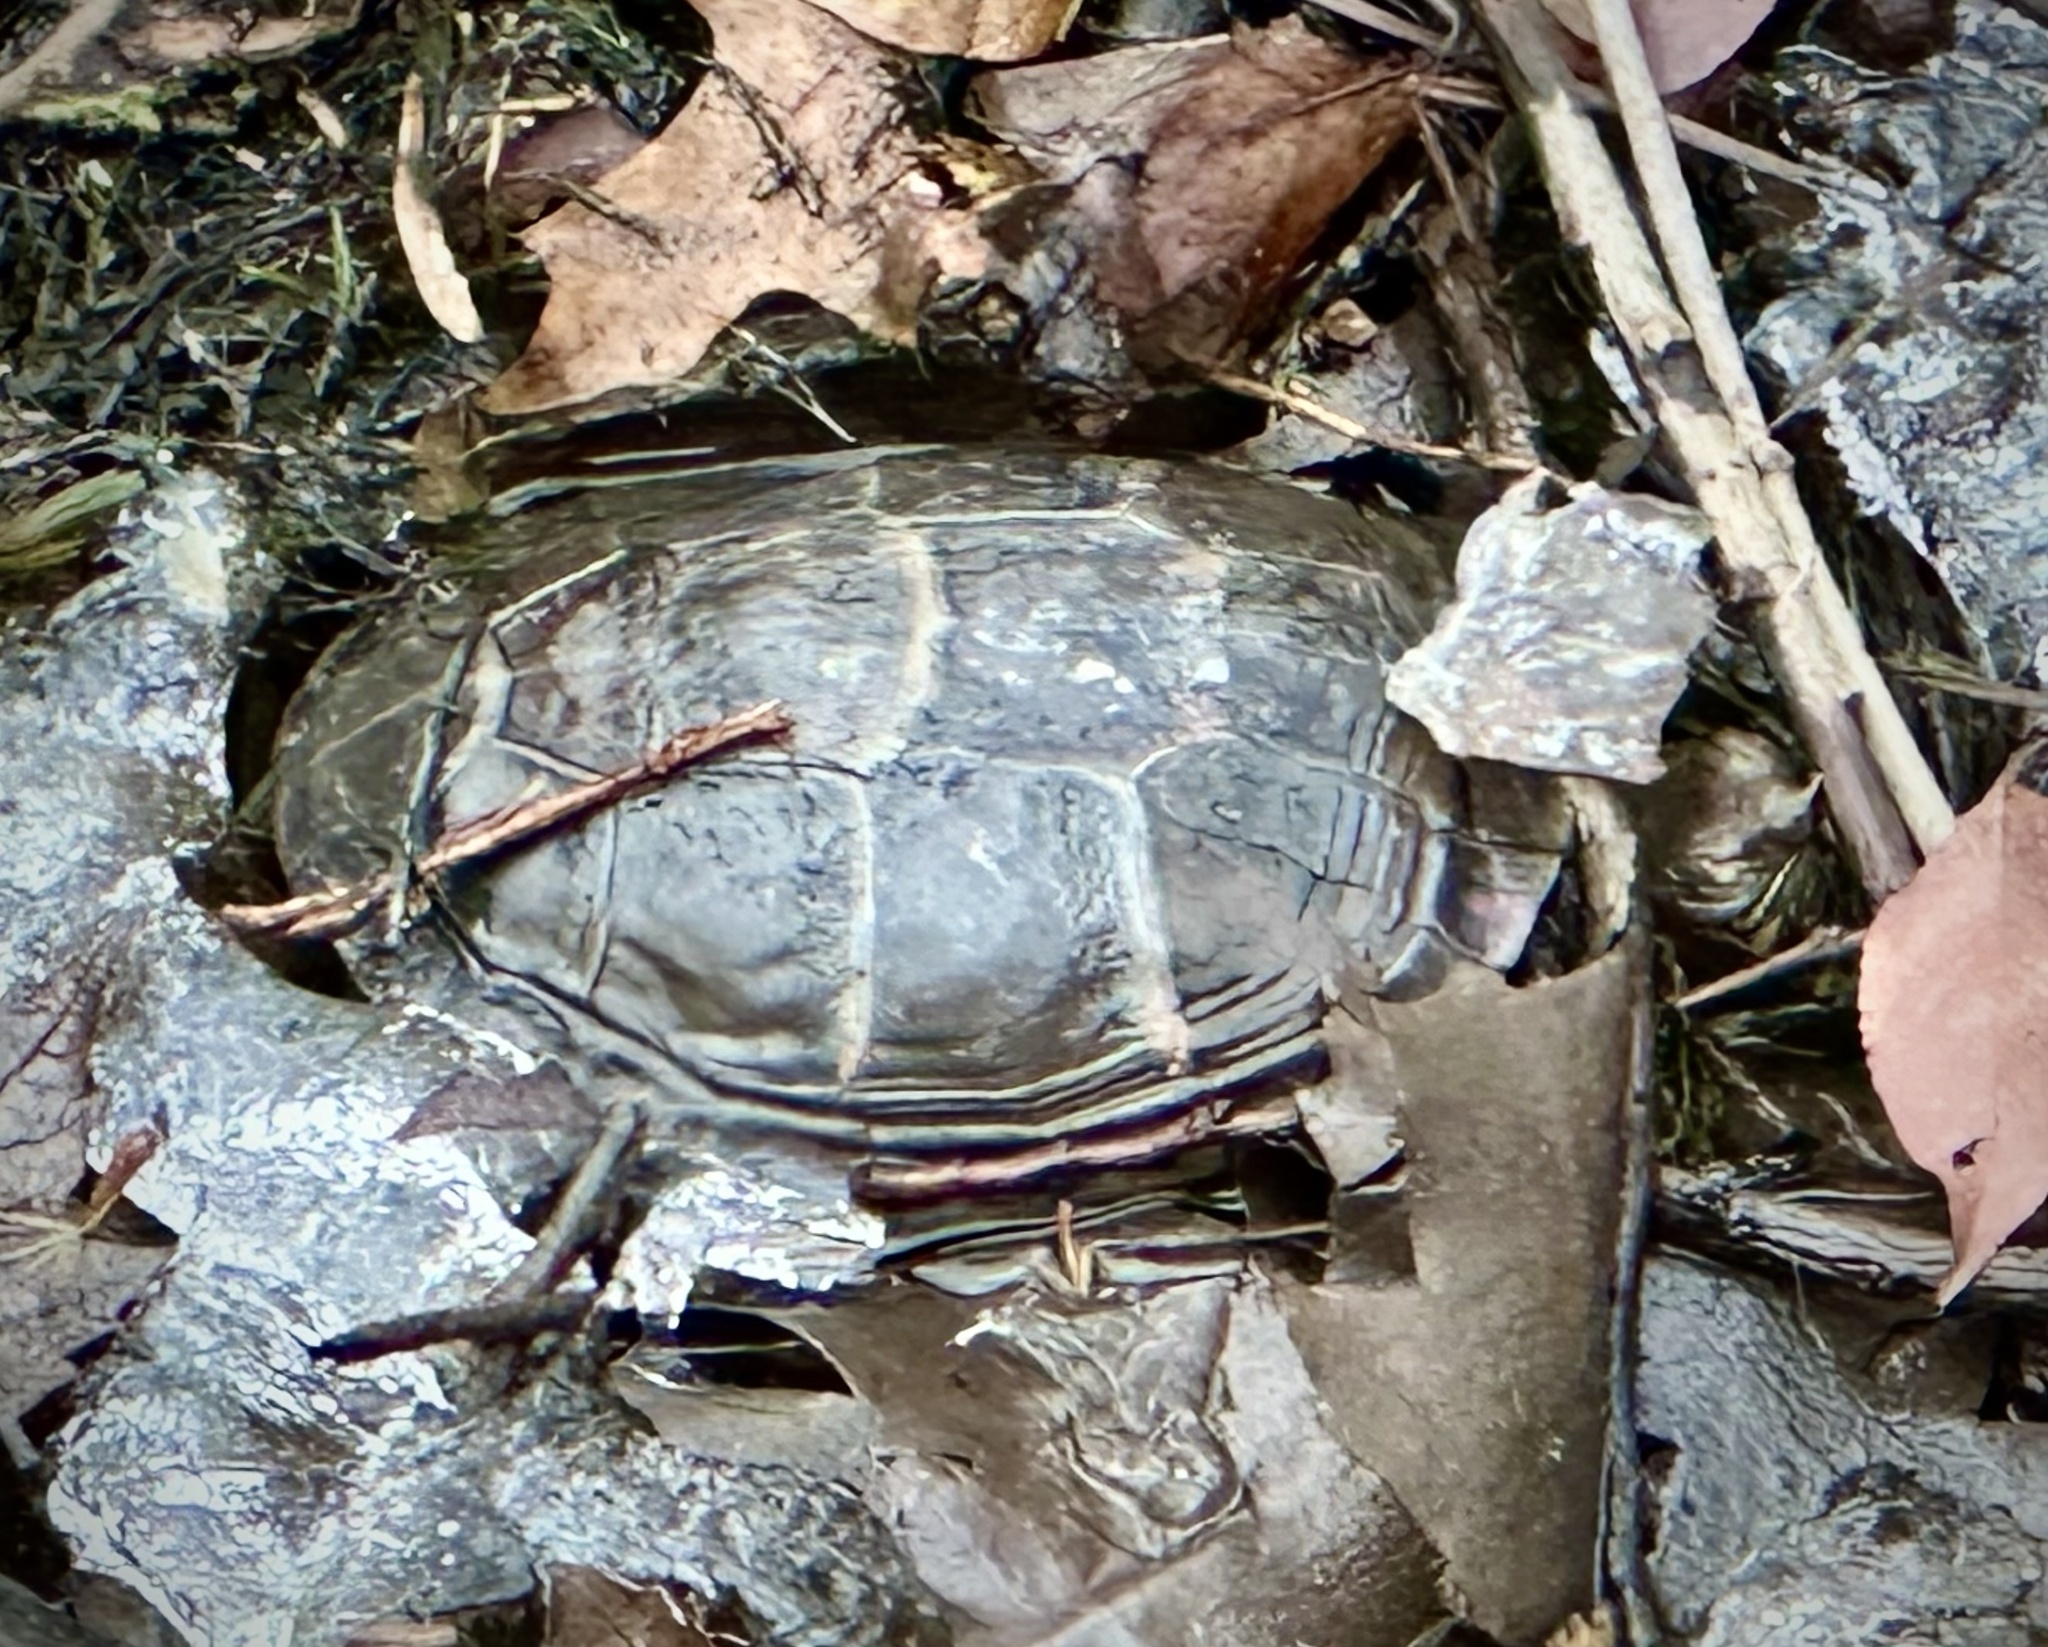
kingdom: Animalia
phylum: Chordata
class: Testudines
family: Emydidae
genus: Chrysemys
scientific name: Chrysemys picta
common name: Painted turtle
